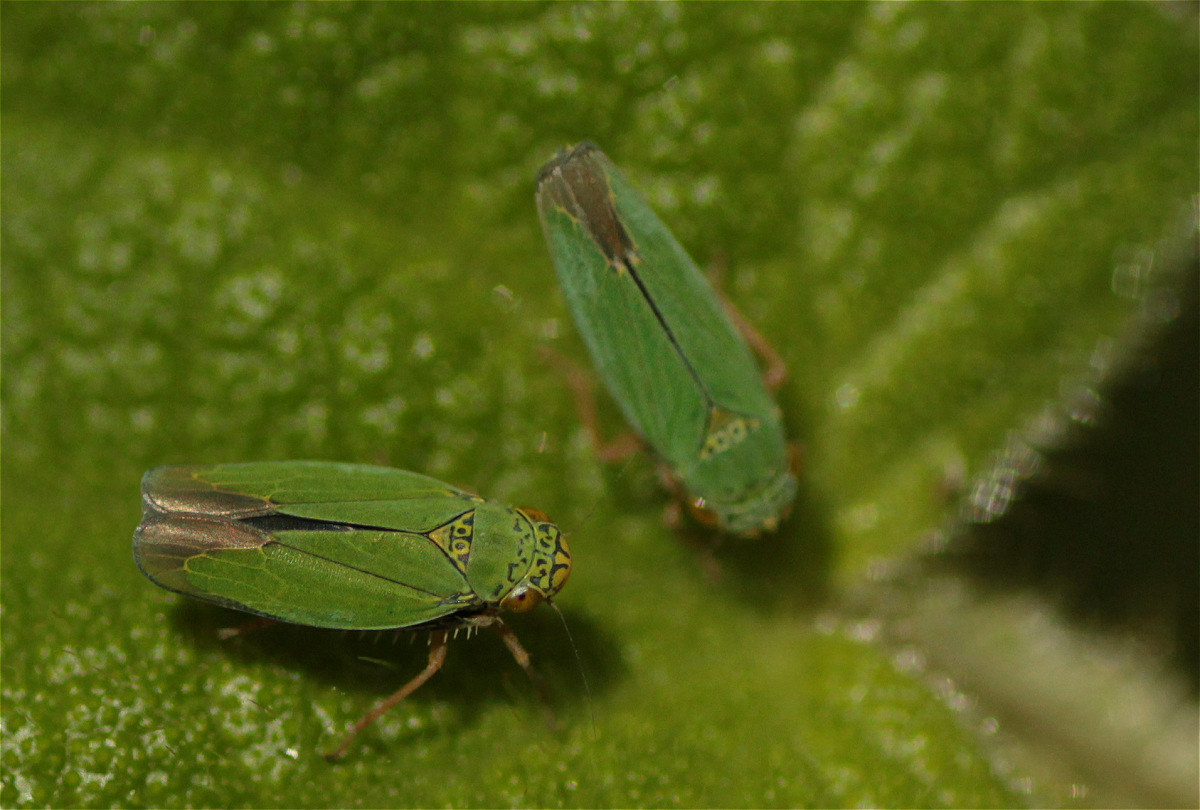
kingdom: Animalia
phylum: Arthropoda
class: Insecta
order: Hemiptera
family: Cicadellidae
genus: Tortigonalia
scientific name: Tortigonalia longicaudata
